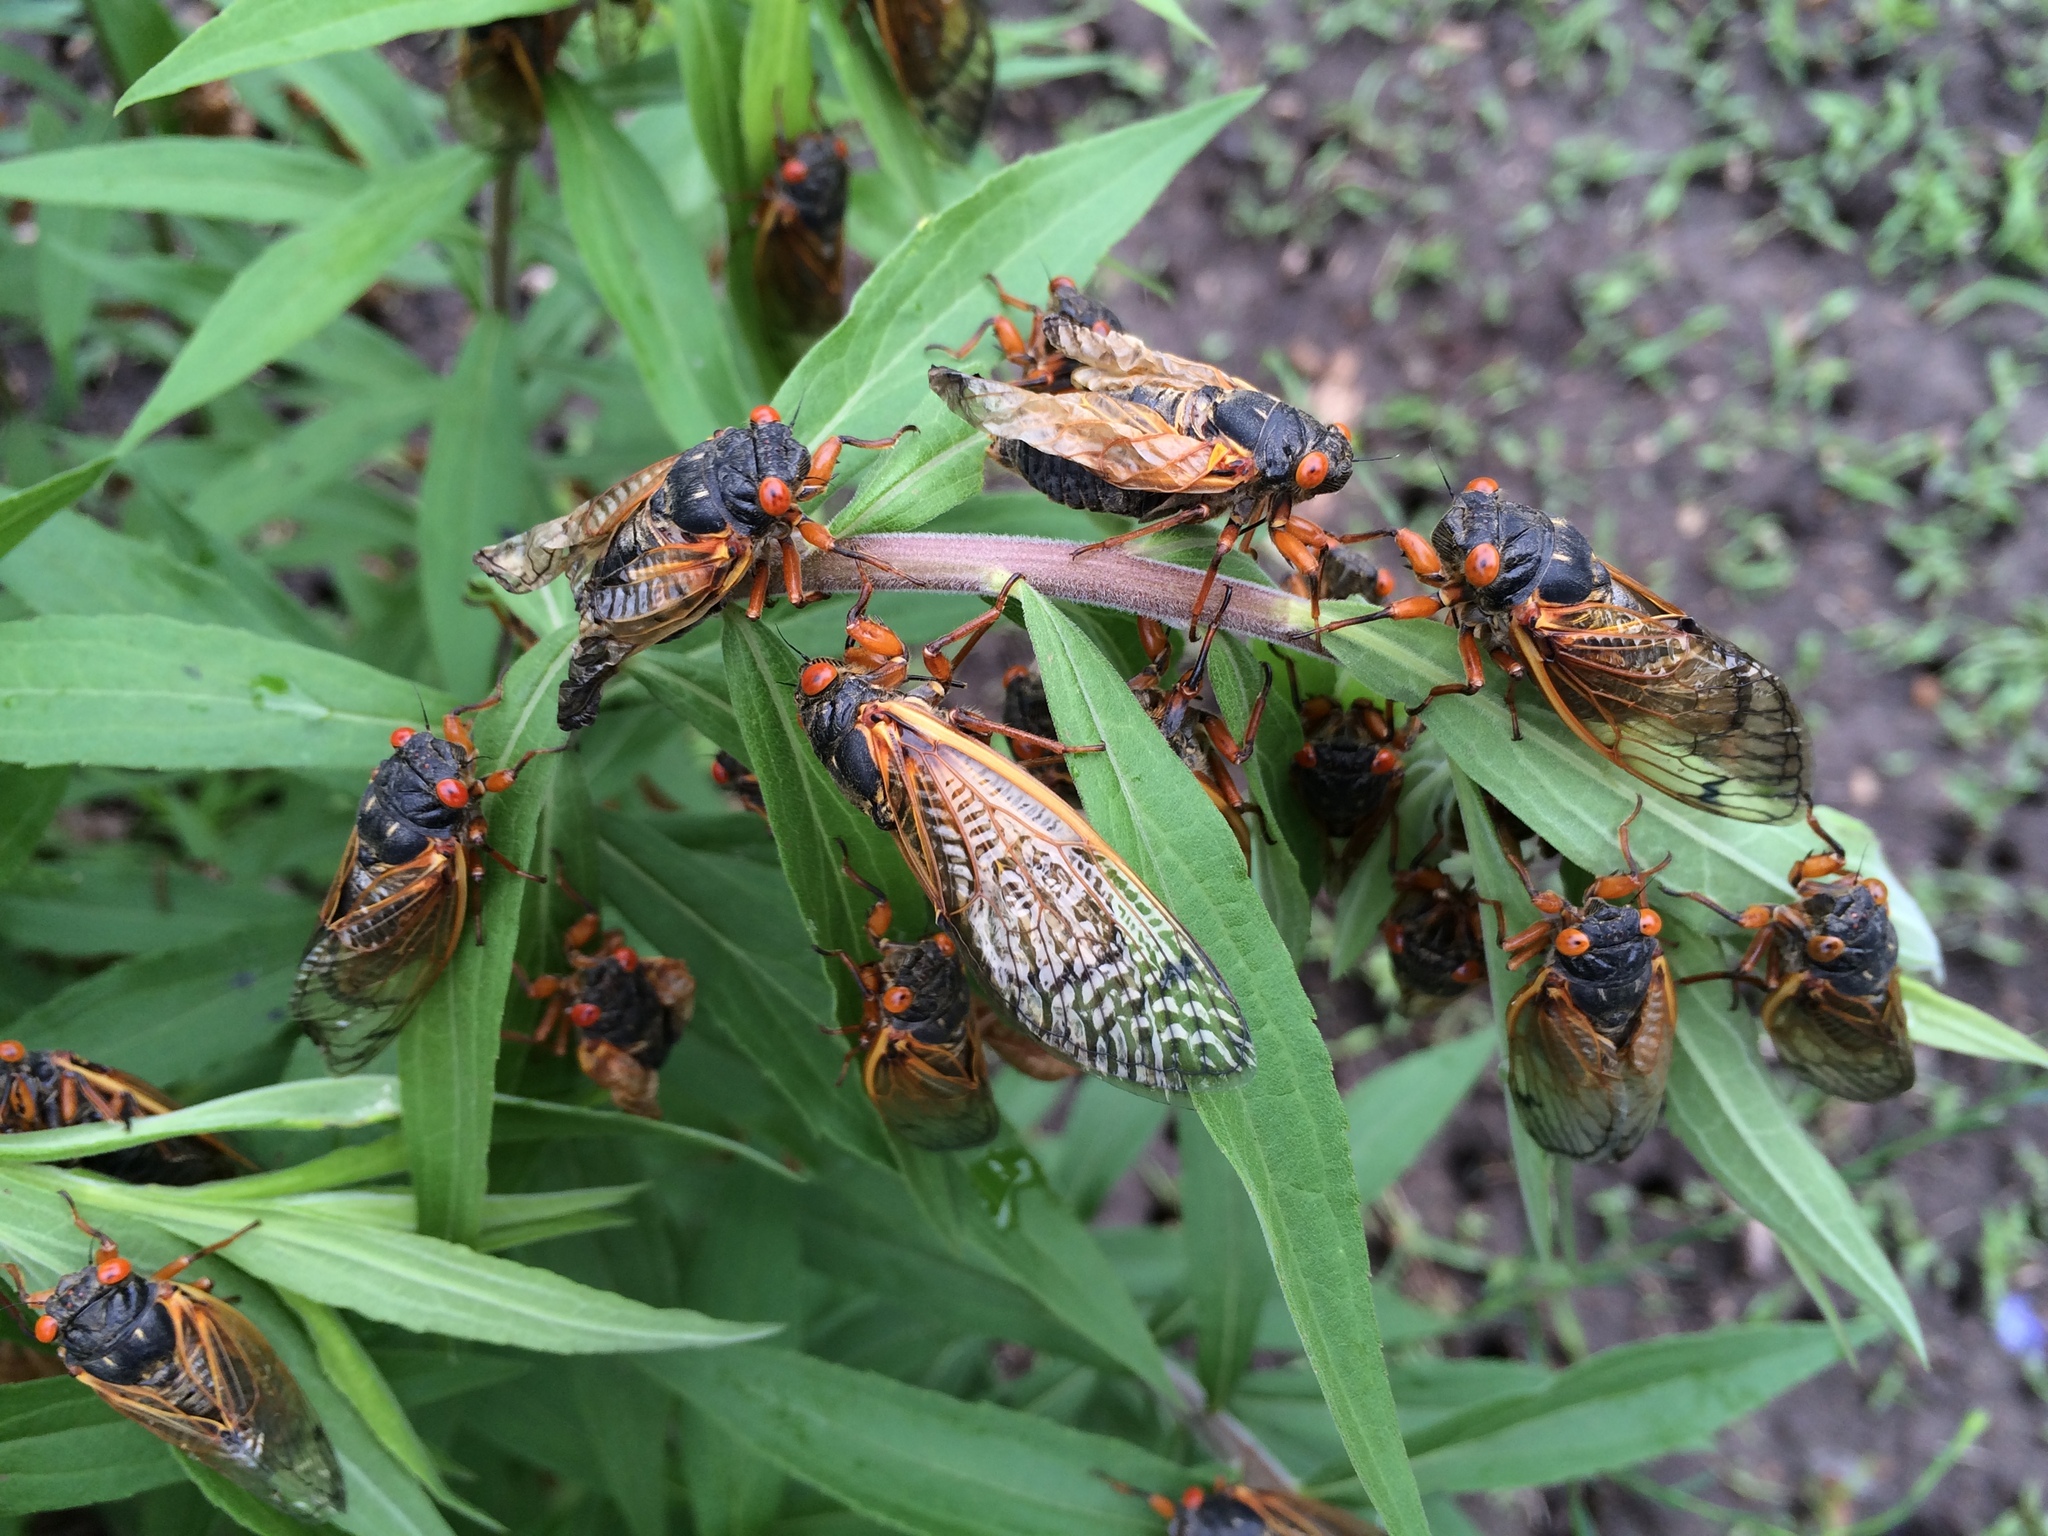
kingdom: Animalia
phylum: Arthropoda
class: Insecta
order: Hemiptera
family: Cicadidae
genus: Magicicada
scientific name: Magicicada cassini
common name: Cassin's 17-year cicada
